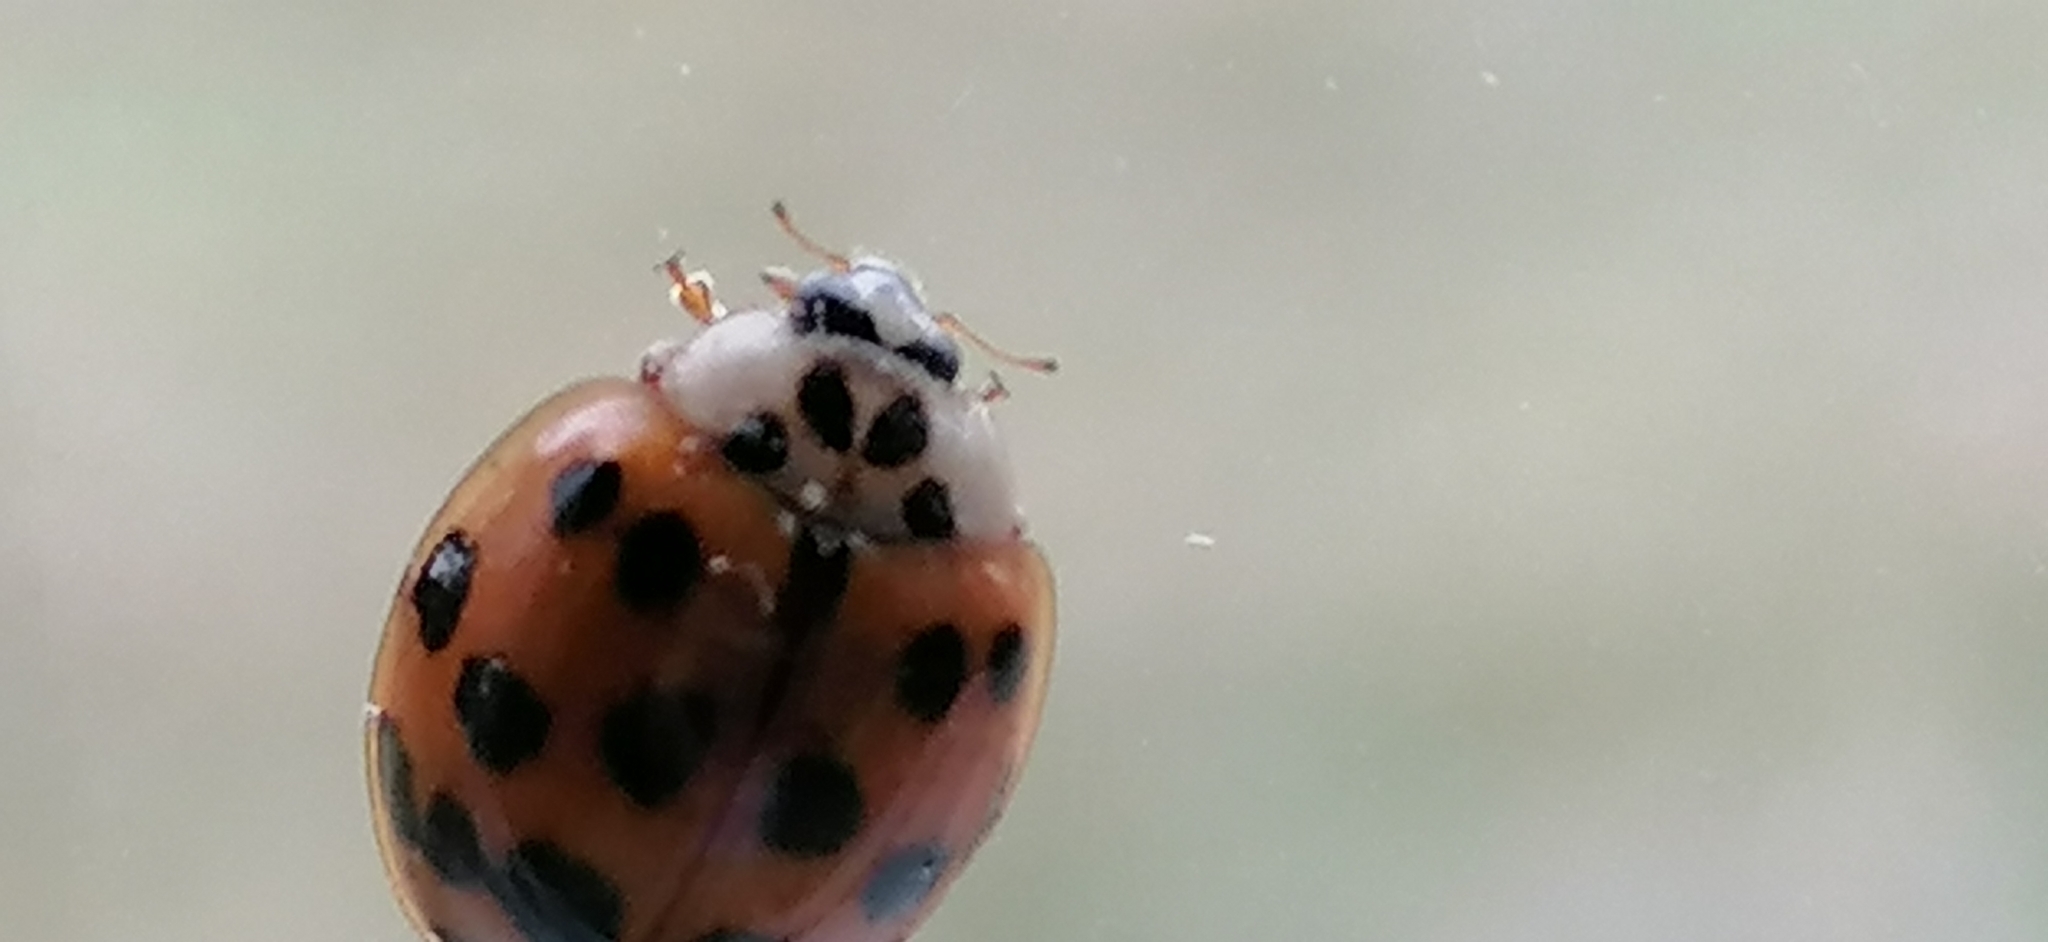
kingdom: Animalia
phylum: Arthropoda
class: Insecta
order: Coleoptera
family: Coccinellidae
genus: Harmonia
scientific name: Harmonia axyridis
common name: Harlequin ladybird
